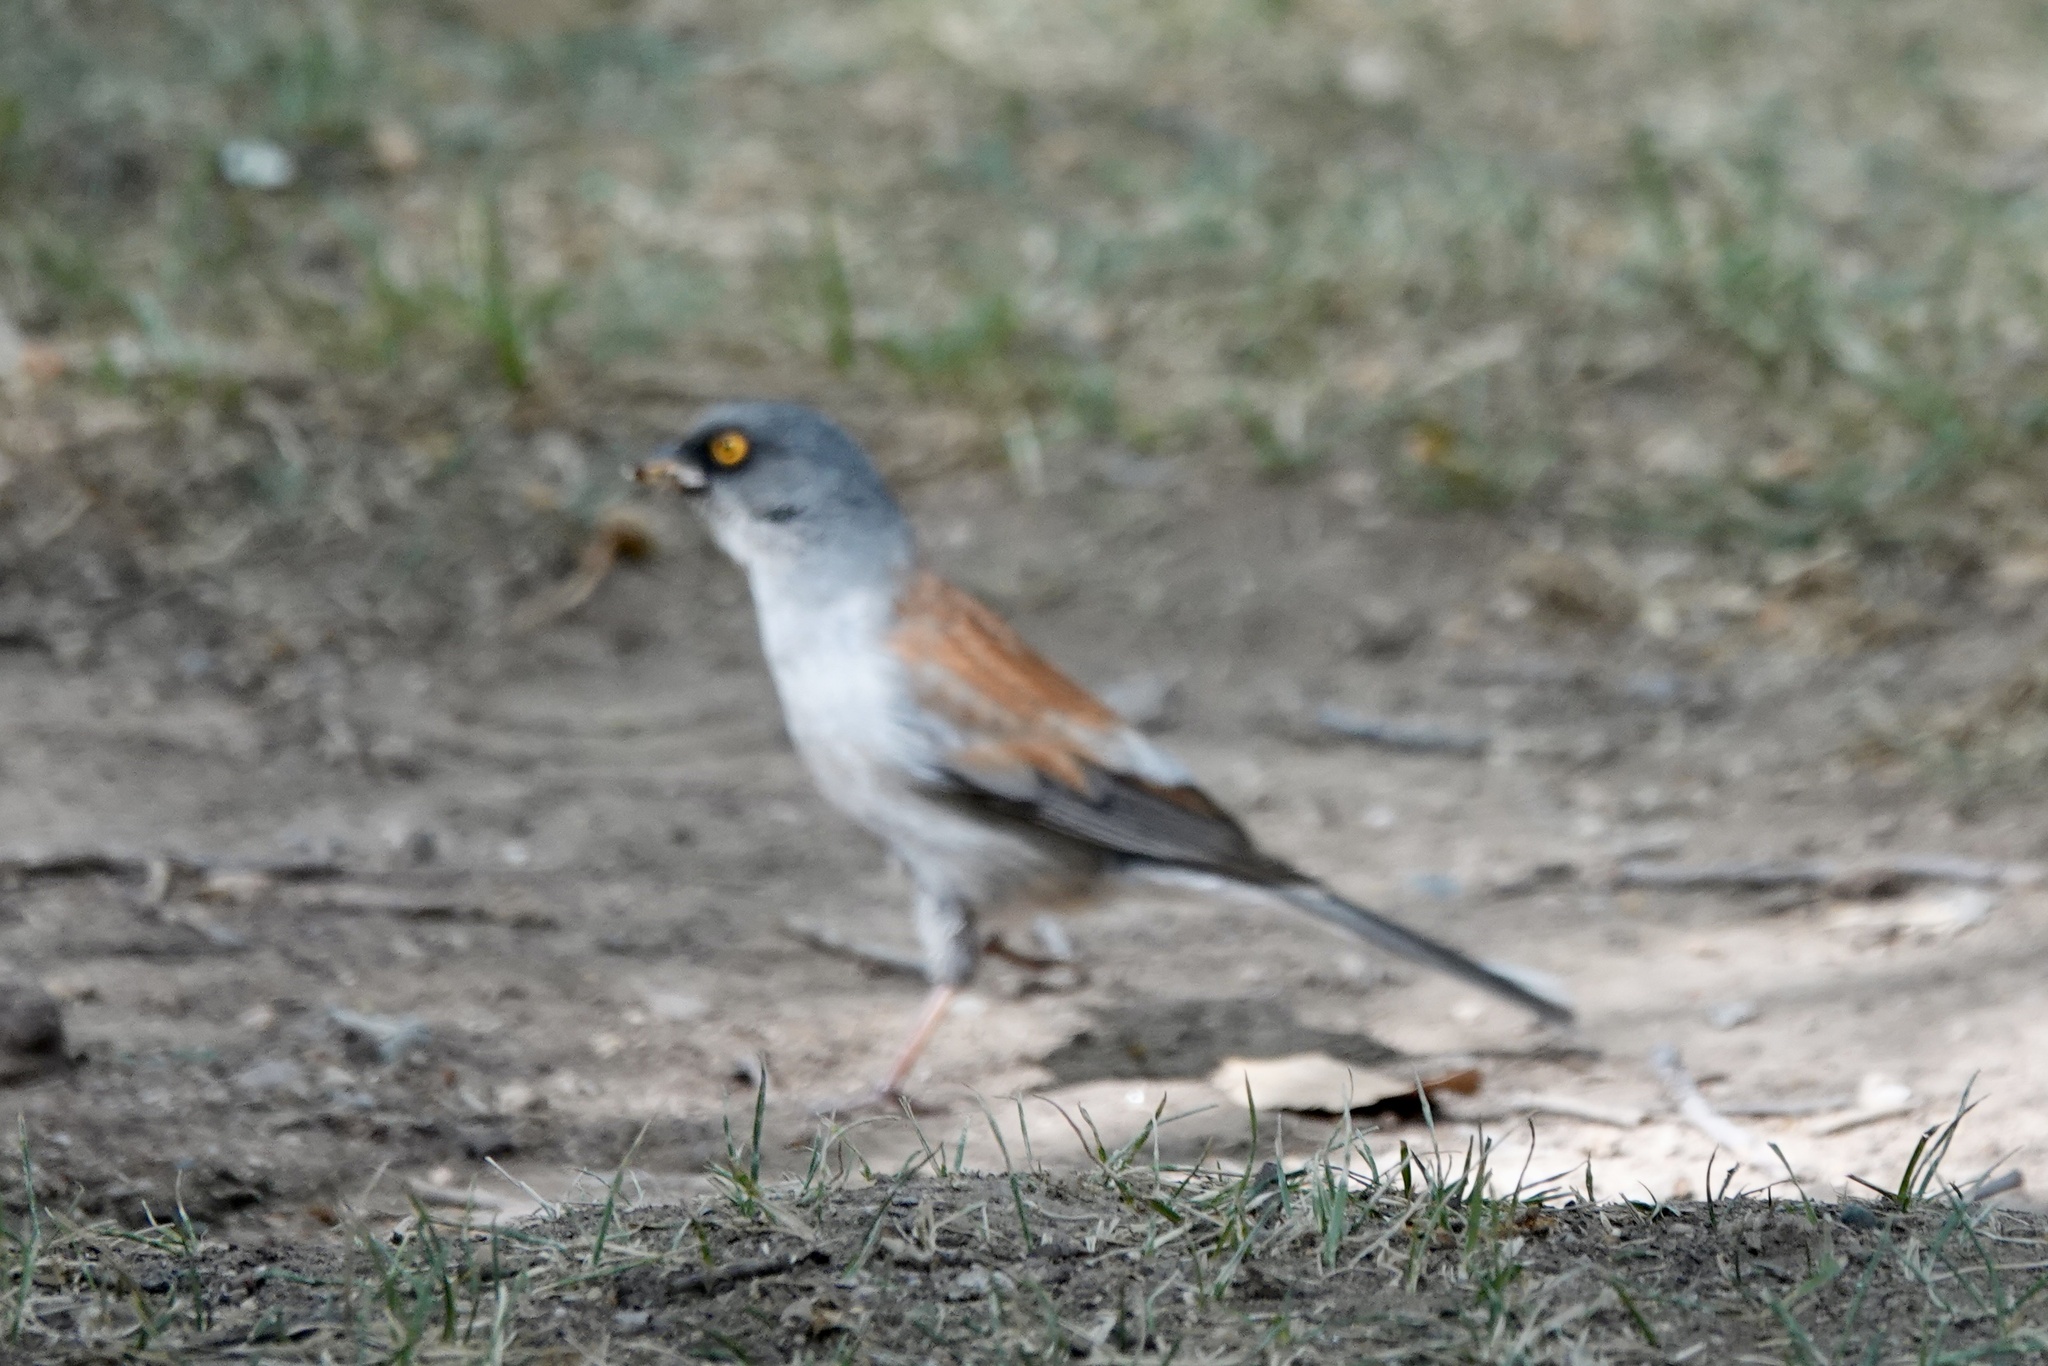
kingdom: Animalia
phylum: Chordata
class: Aves
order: Passeriformes
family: Passerellidae
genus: Junco
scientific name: Junco phaeonotus
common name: Yellow-eyed junco
